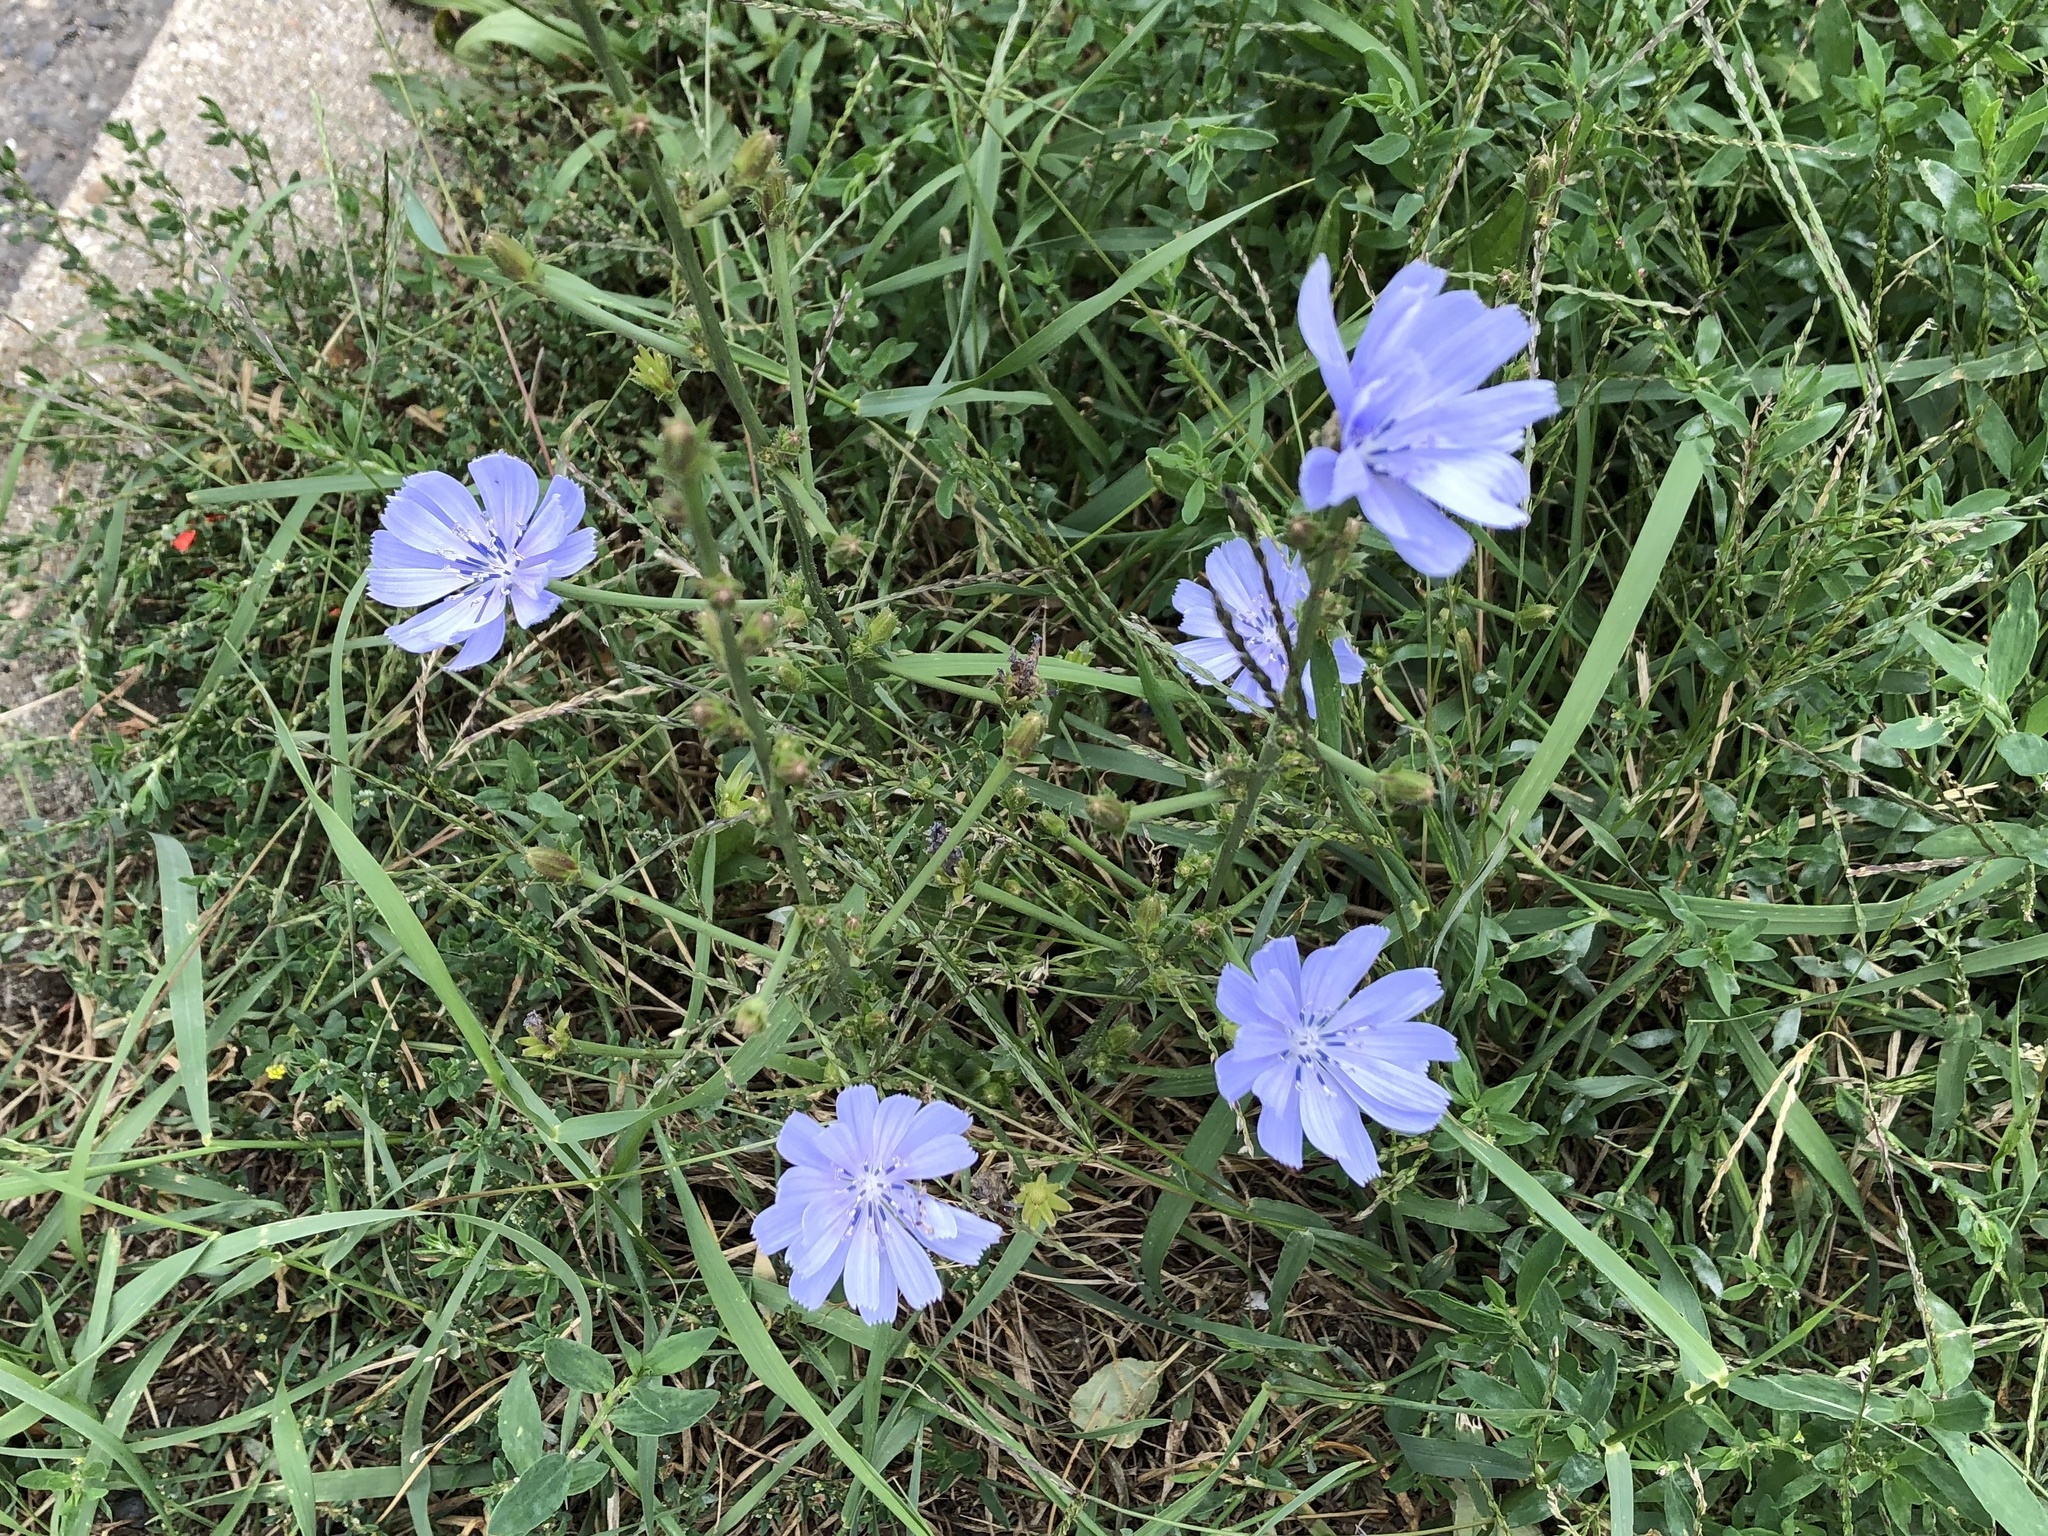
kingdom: Plantae
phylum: Tracheophyta
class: Magnoliopsida
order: Asterales
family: Asteraceae
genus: Cichorium
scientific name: Cichorium intybus
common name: Chicory
